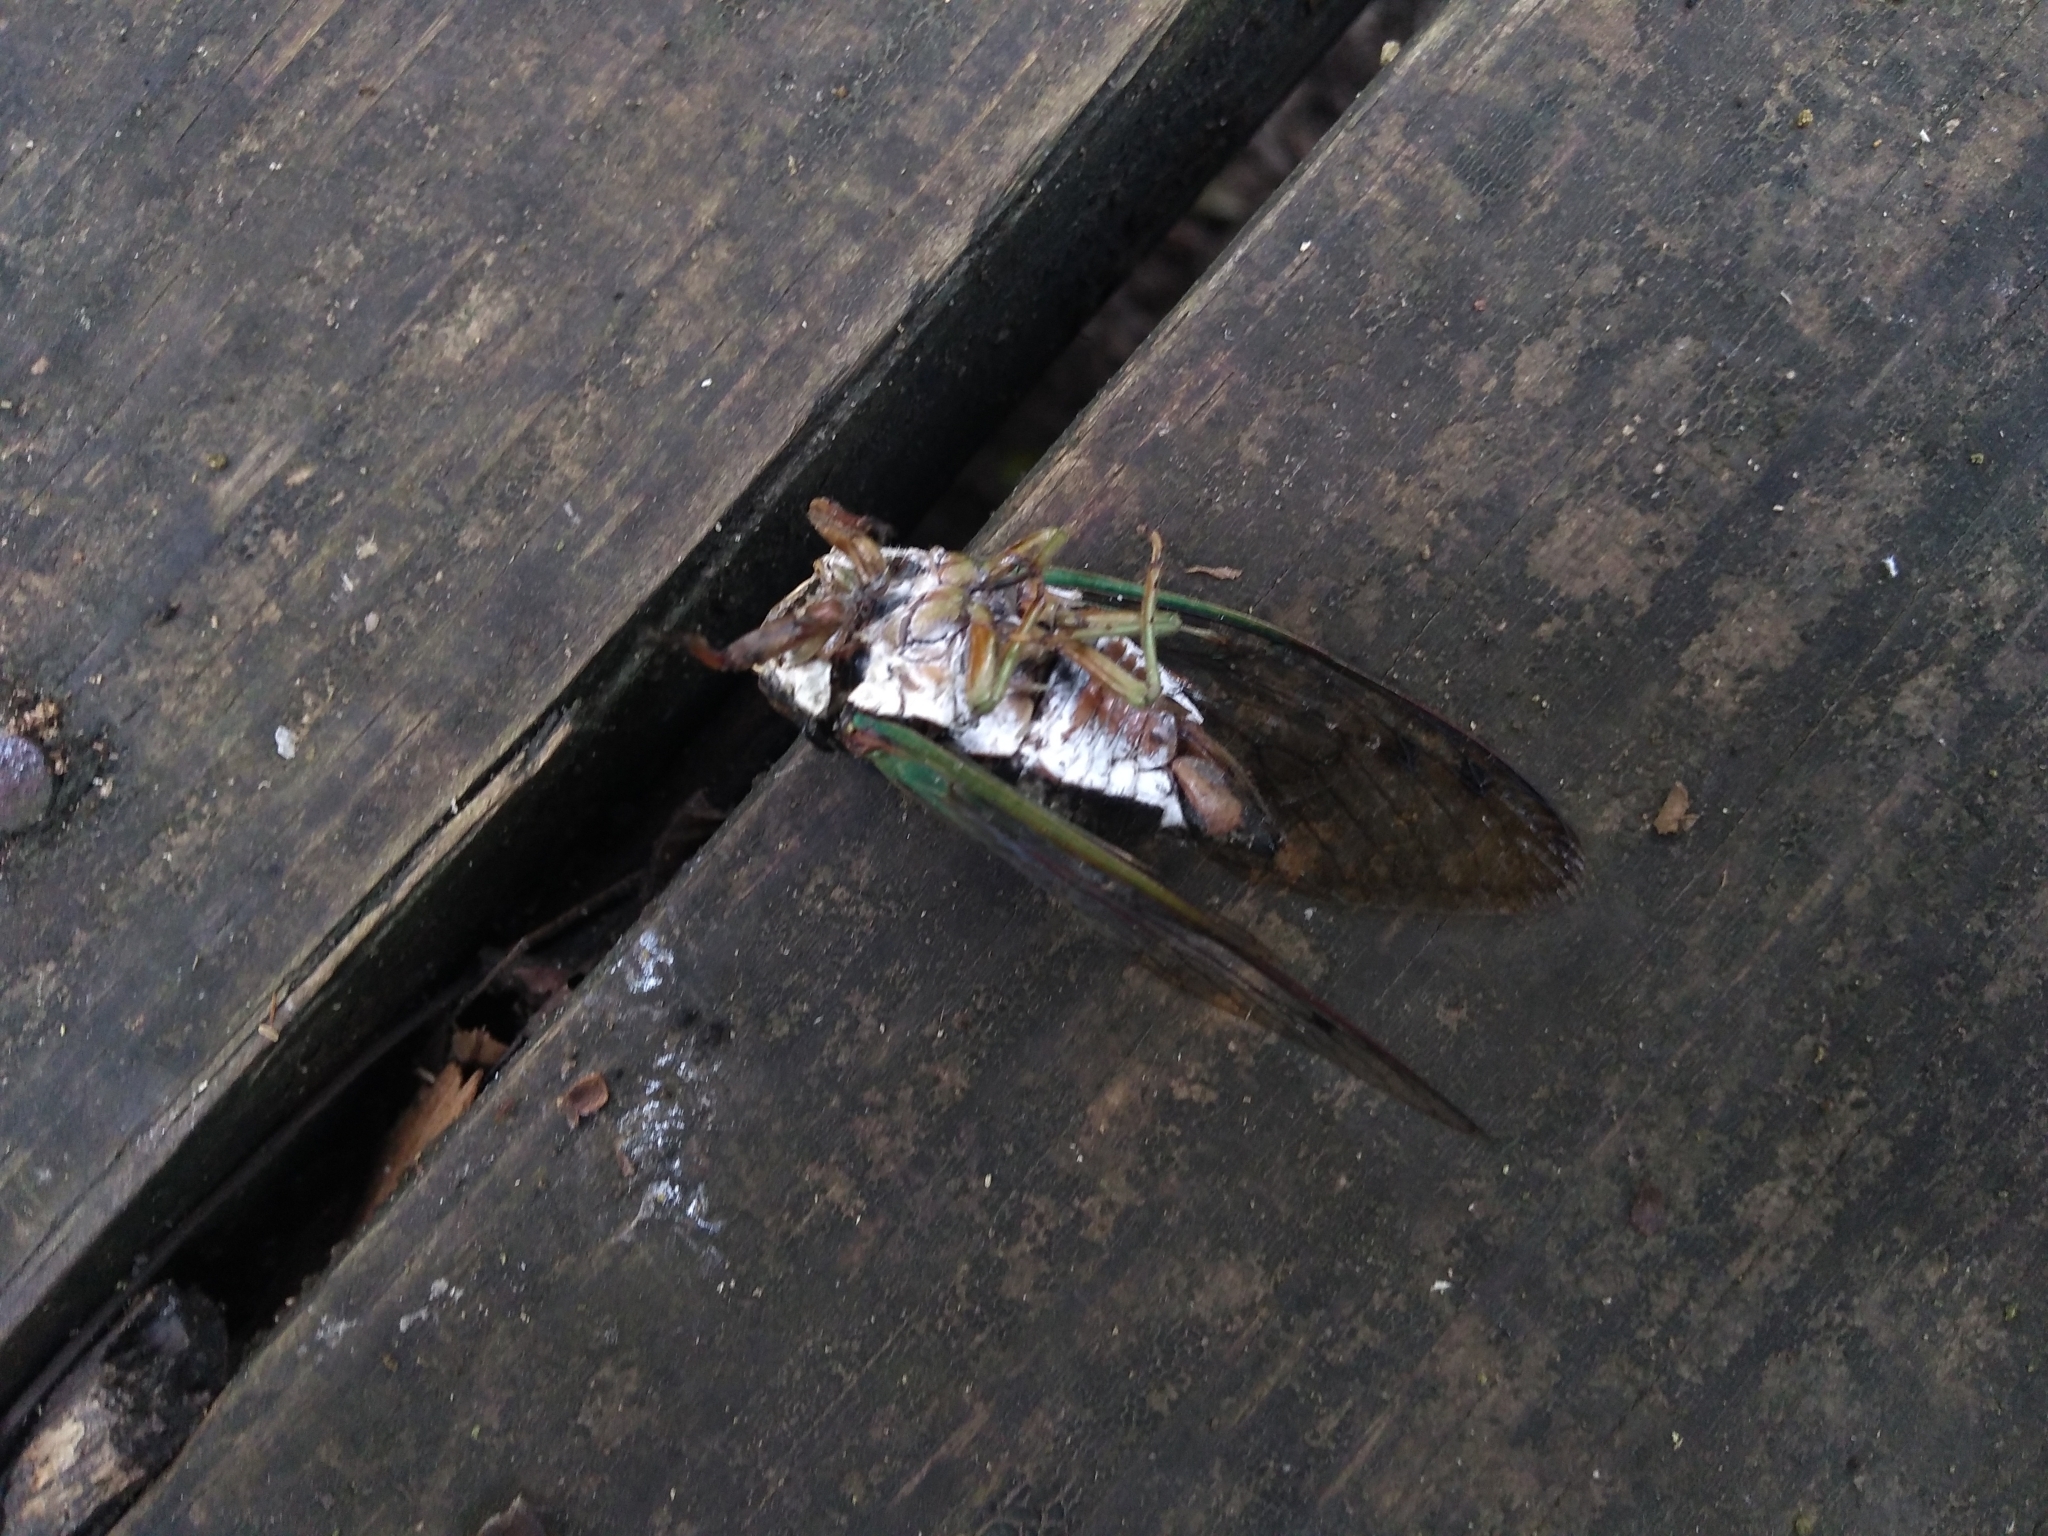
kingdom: Animalia
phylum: Arthropoda
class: Insecta
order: Hemiptera
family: Cicadidae
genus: Neotibicen
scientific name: Neotibicen tibicen
